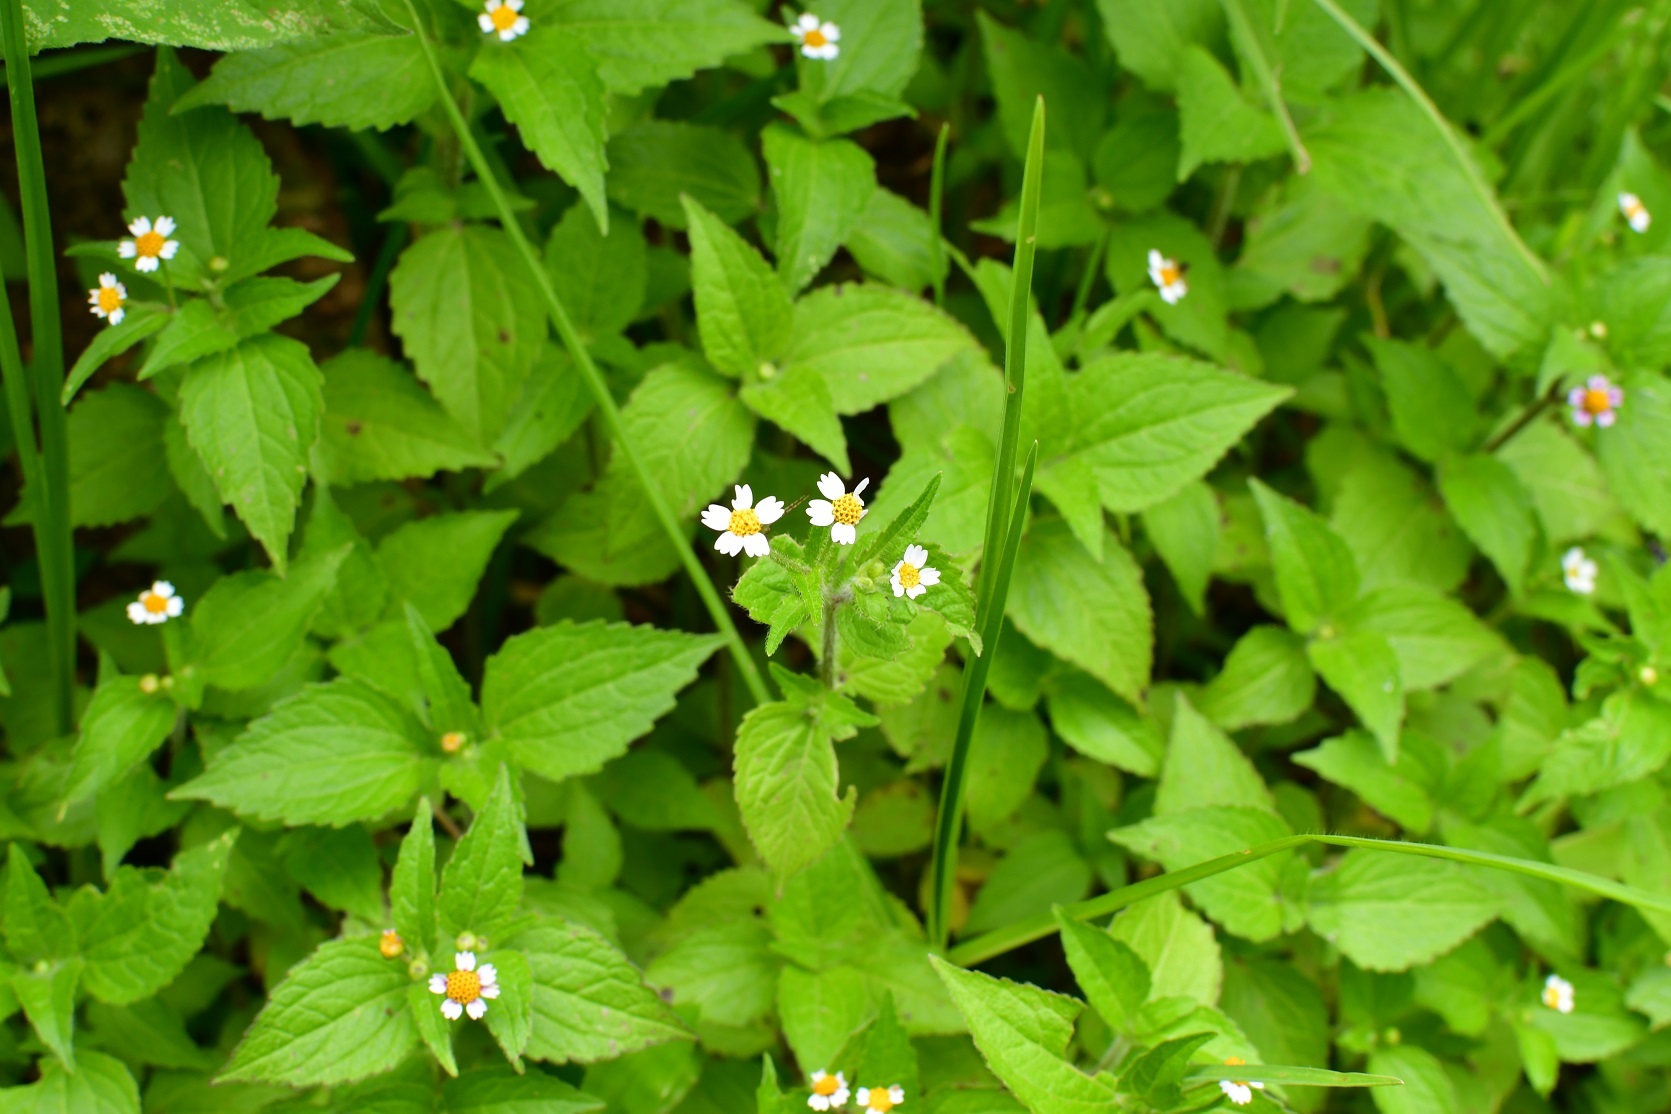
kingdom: Plantae
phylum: Tracheophyta
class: Magnoliopsida
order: Asterales
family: Asteraceae
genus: Galinsoga
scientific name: Galinsoga quadriradiata
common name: Shaggy soldier
